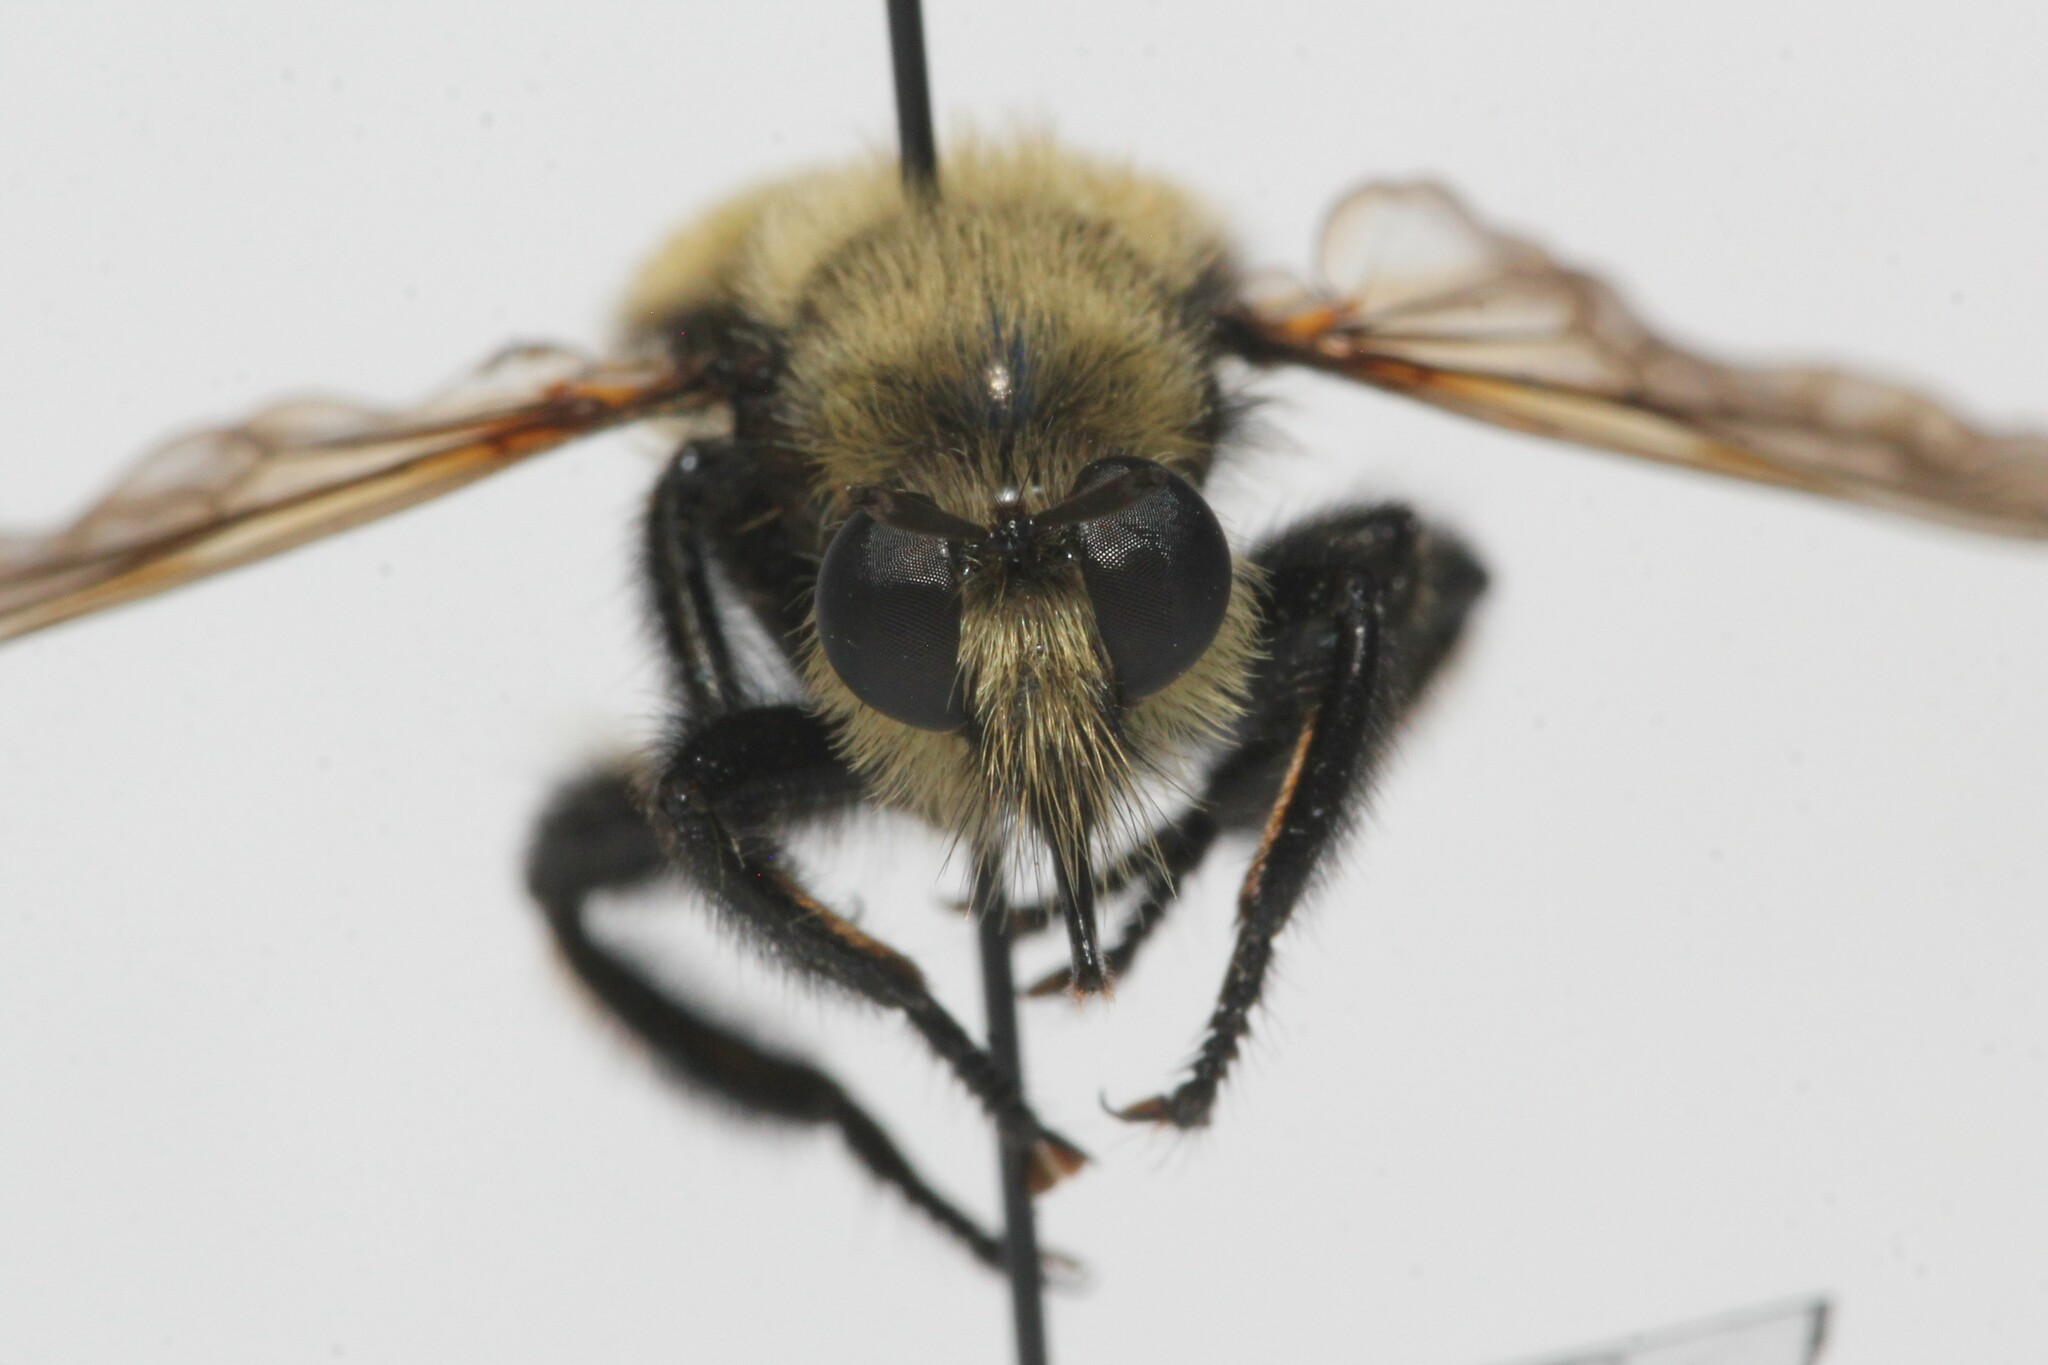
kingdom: Animalia
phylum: Arthropoda
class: Insecta
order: Diptera
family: Asilidae
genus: Laphria
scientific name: Laphria posticata
